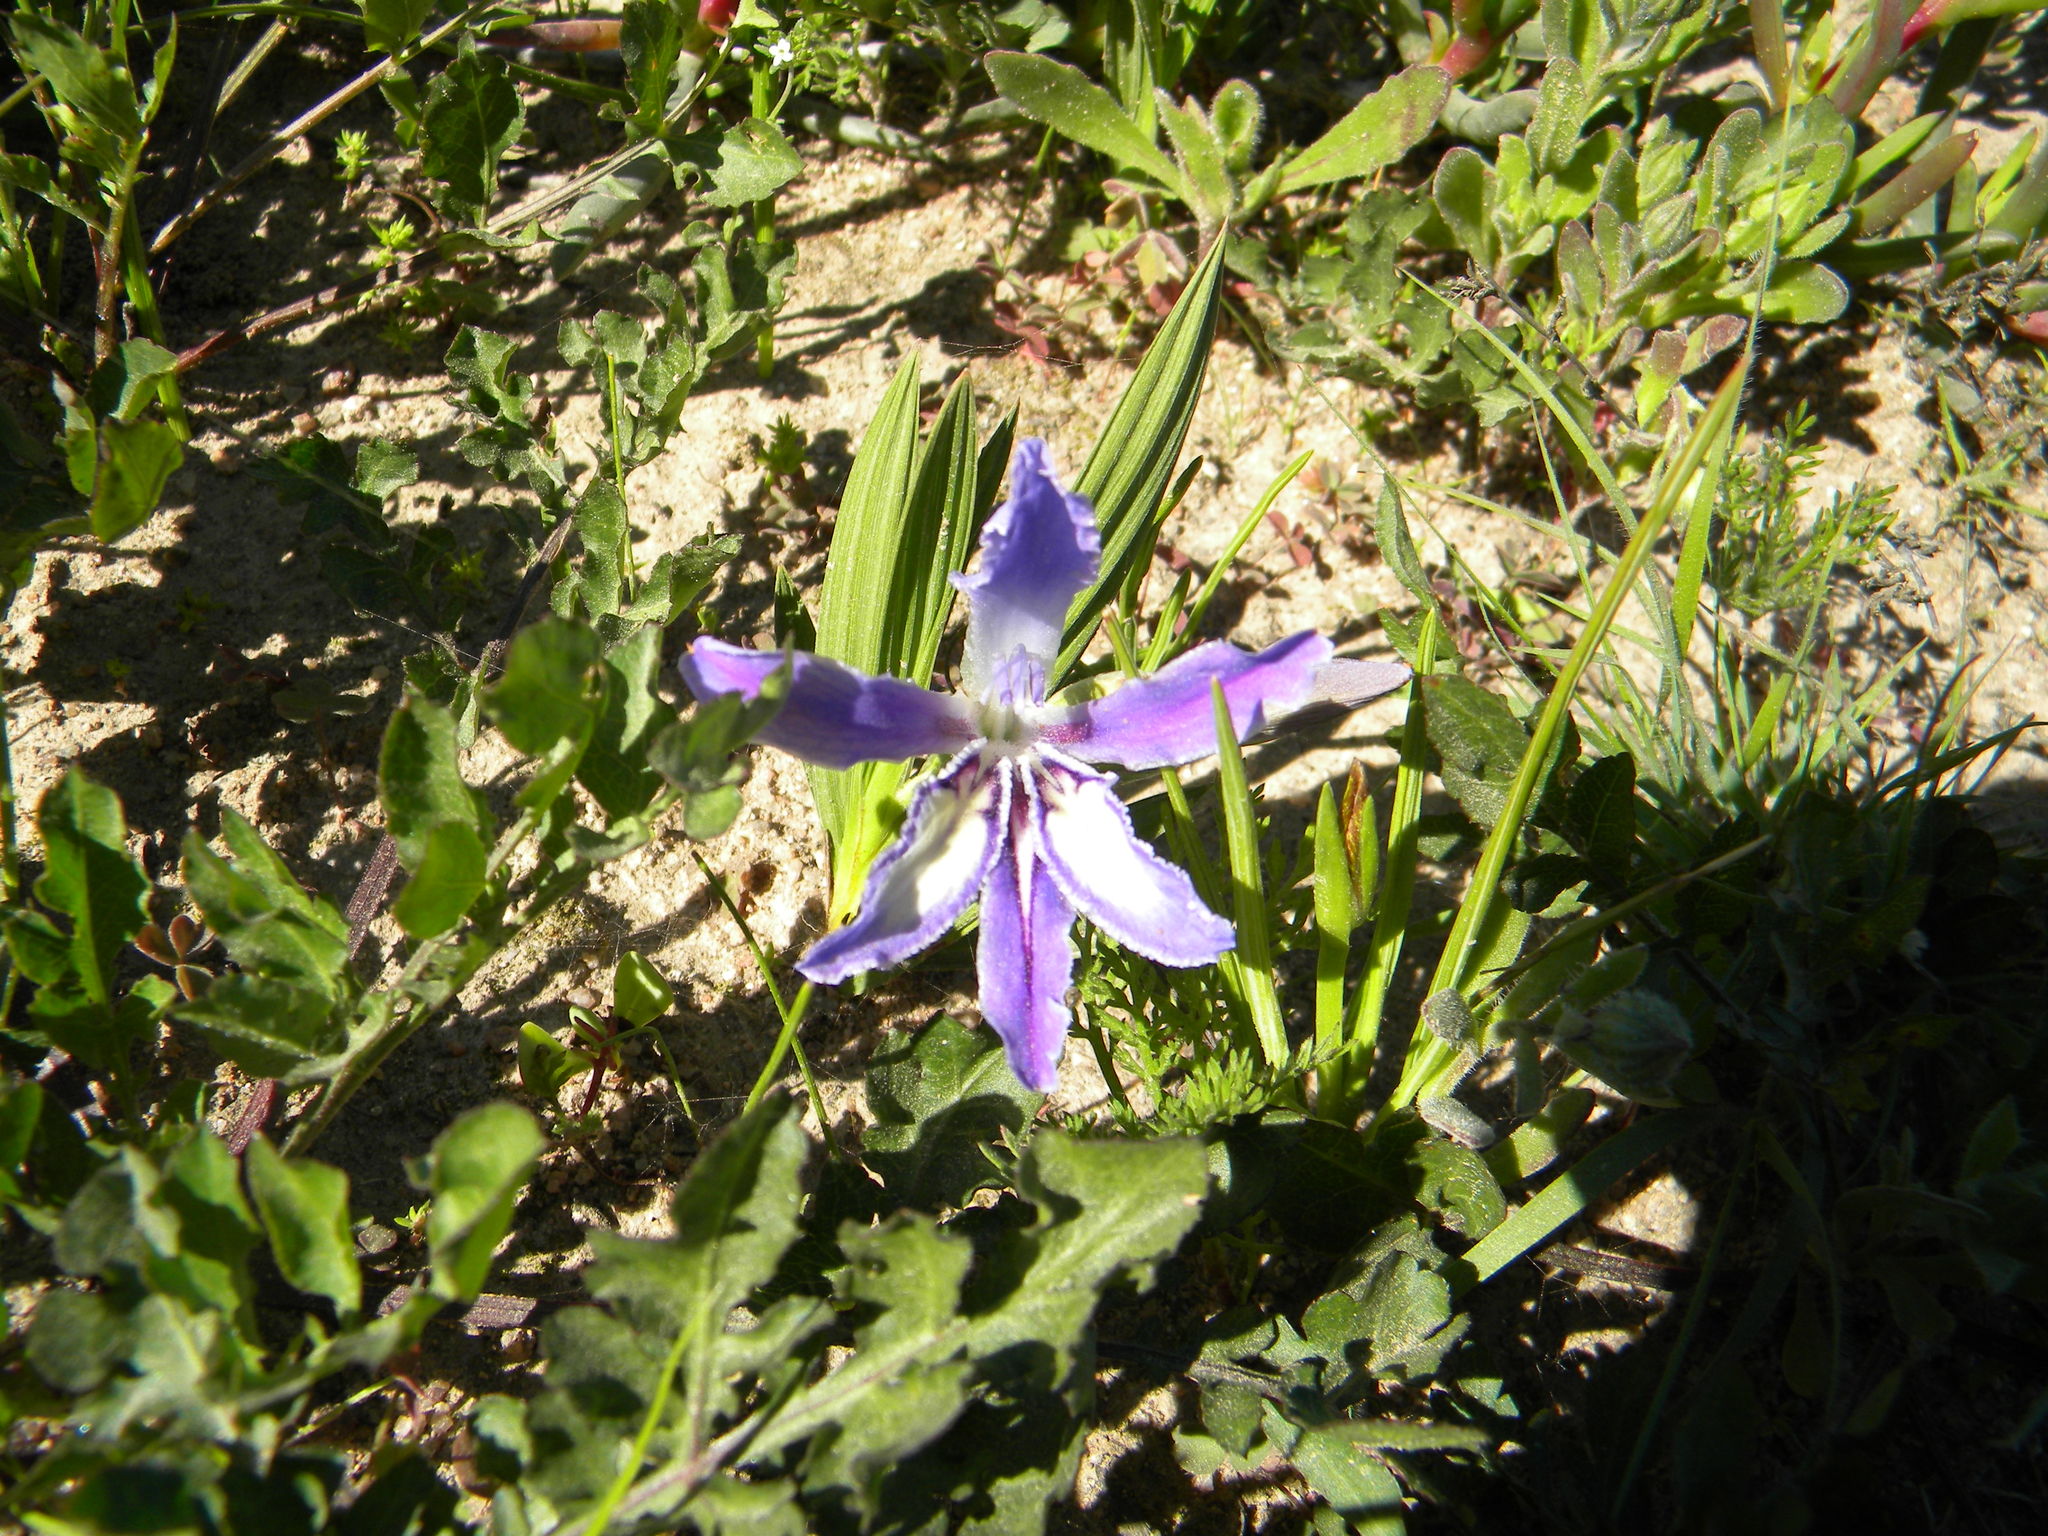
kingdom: Plantae
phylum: Tracheophyta
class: Liliopsida
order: Asparagales
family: Iridaceae
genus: Babiana
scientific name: Babiana ambigua
